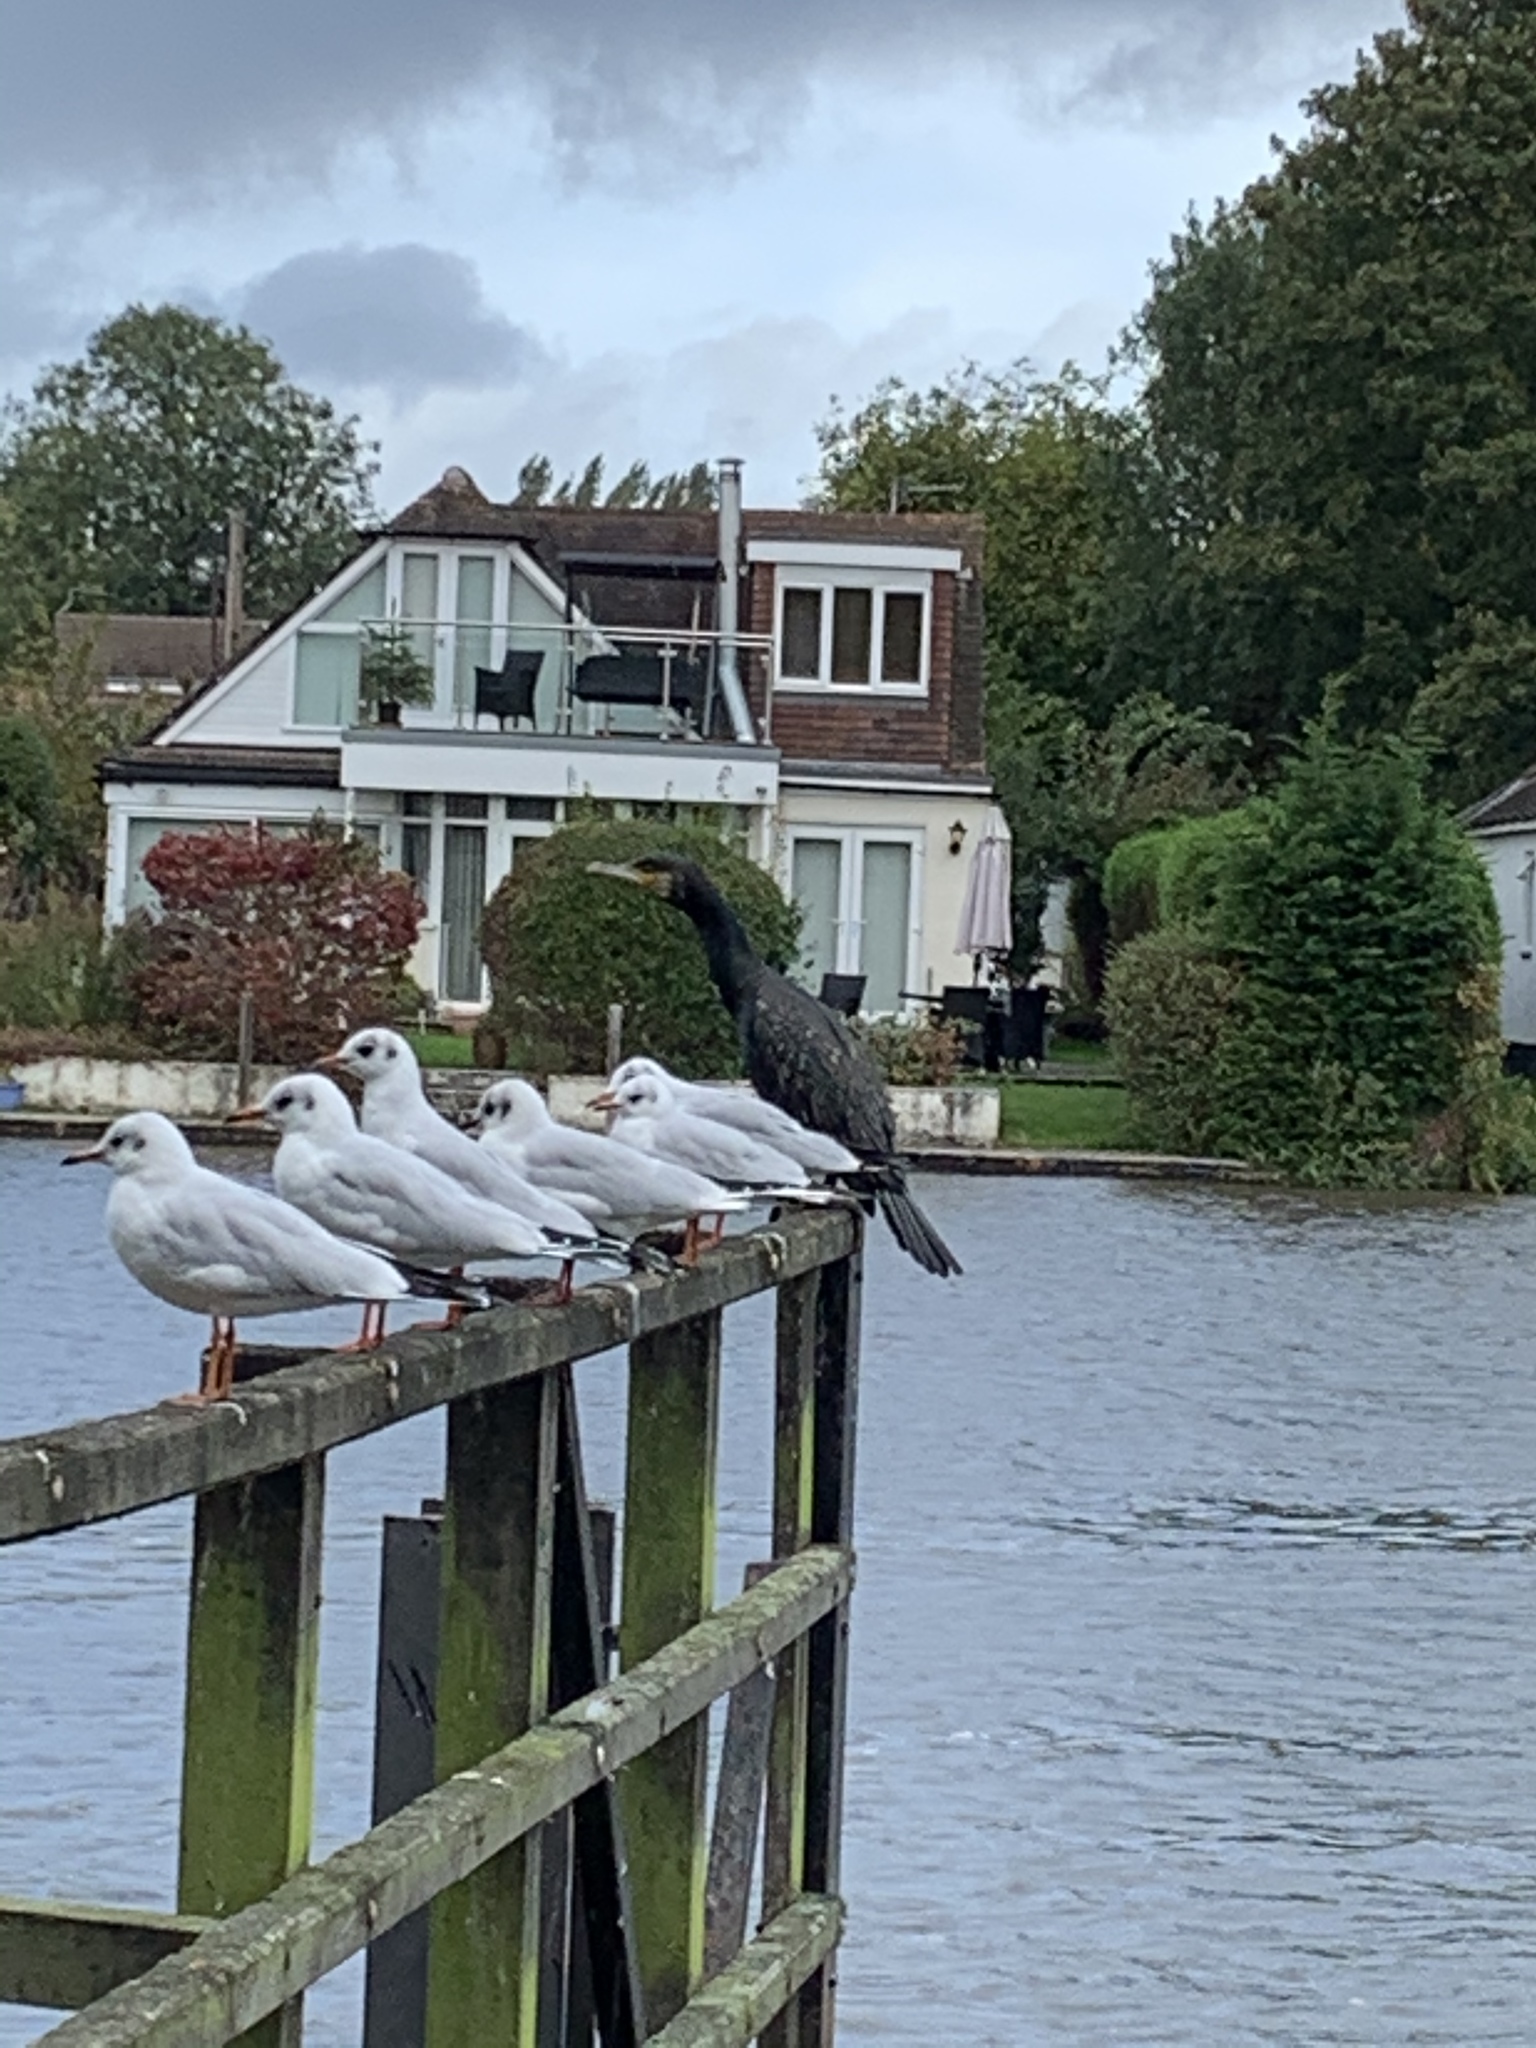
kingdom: Animalia
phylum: Chordata
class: Aves
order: Suliformes
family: Phalacrocoracidae
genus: Phalacrocorax
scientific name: Phalacrocorax carbo
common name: Great cormorant
